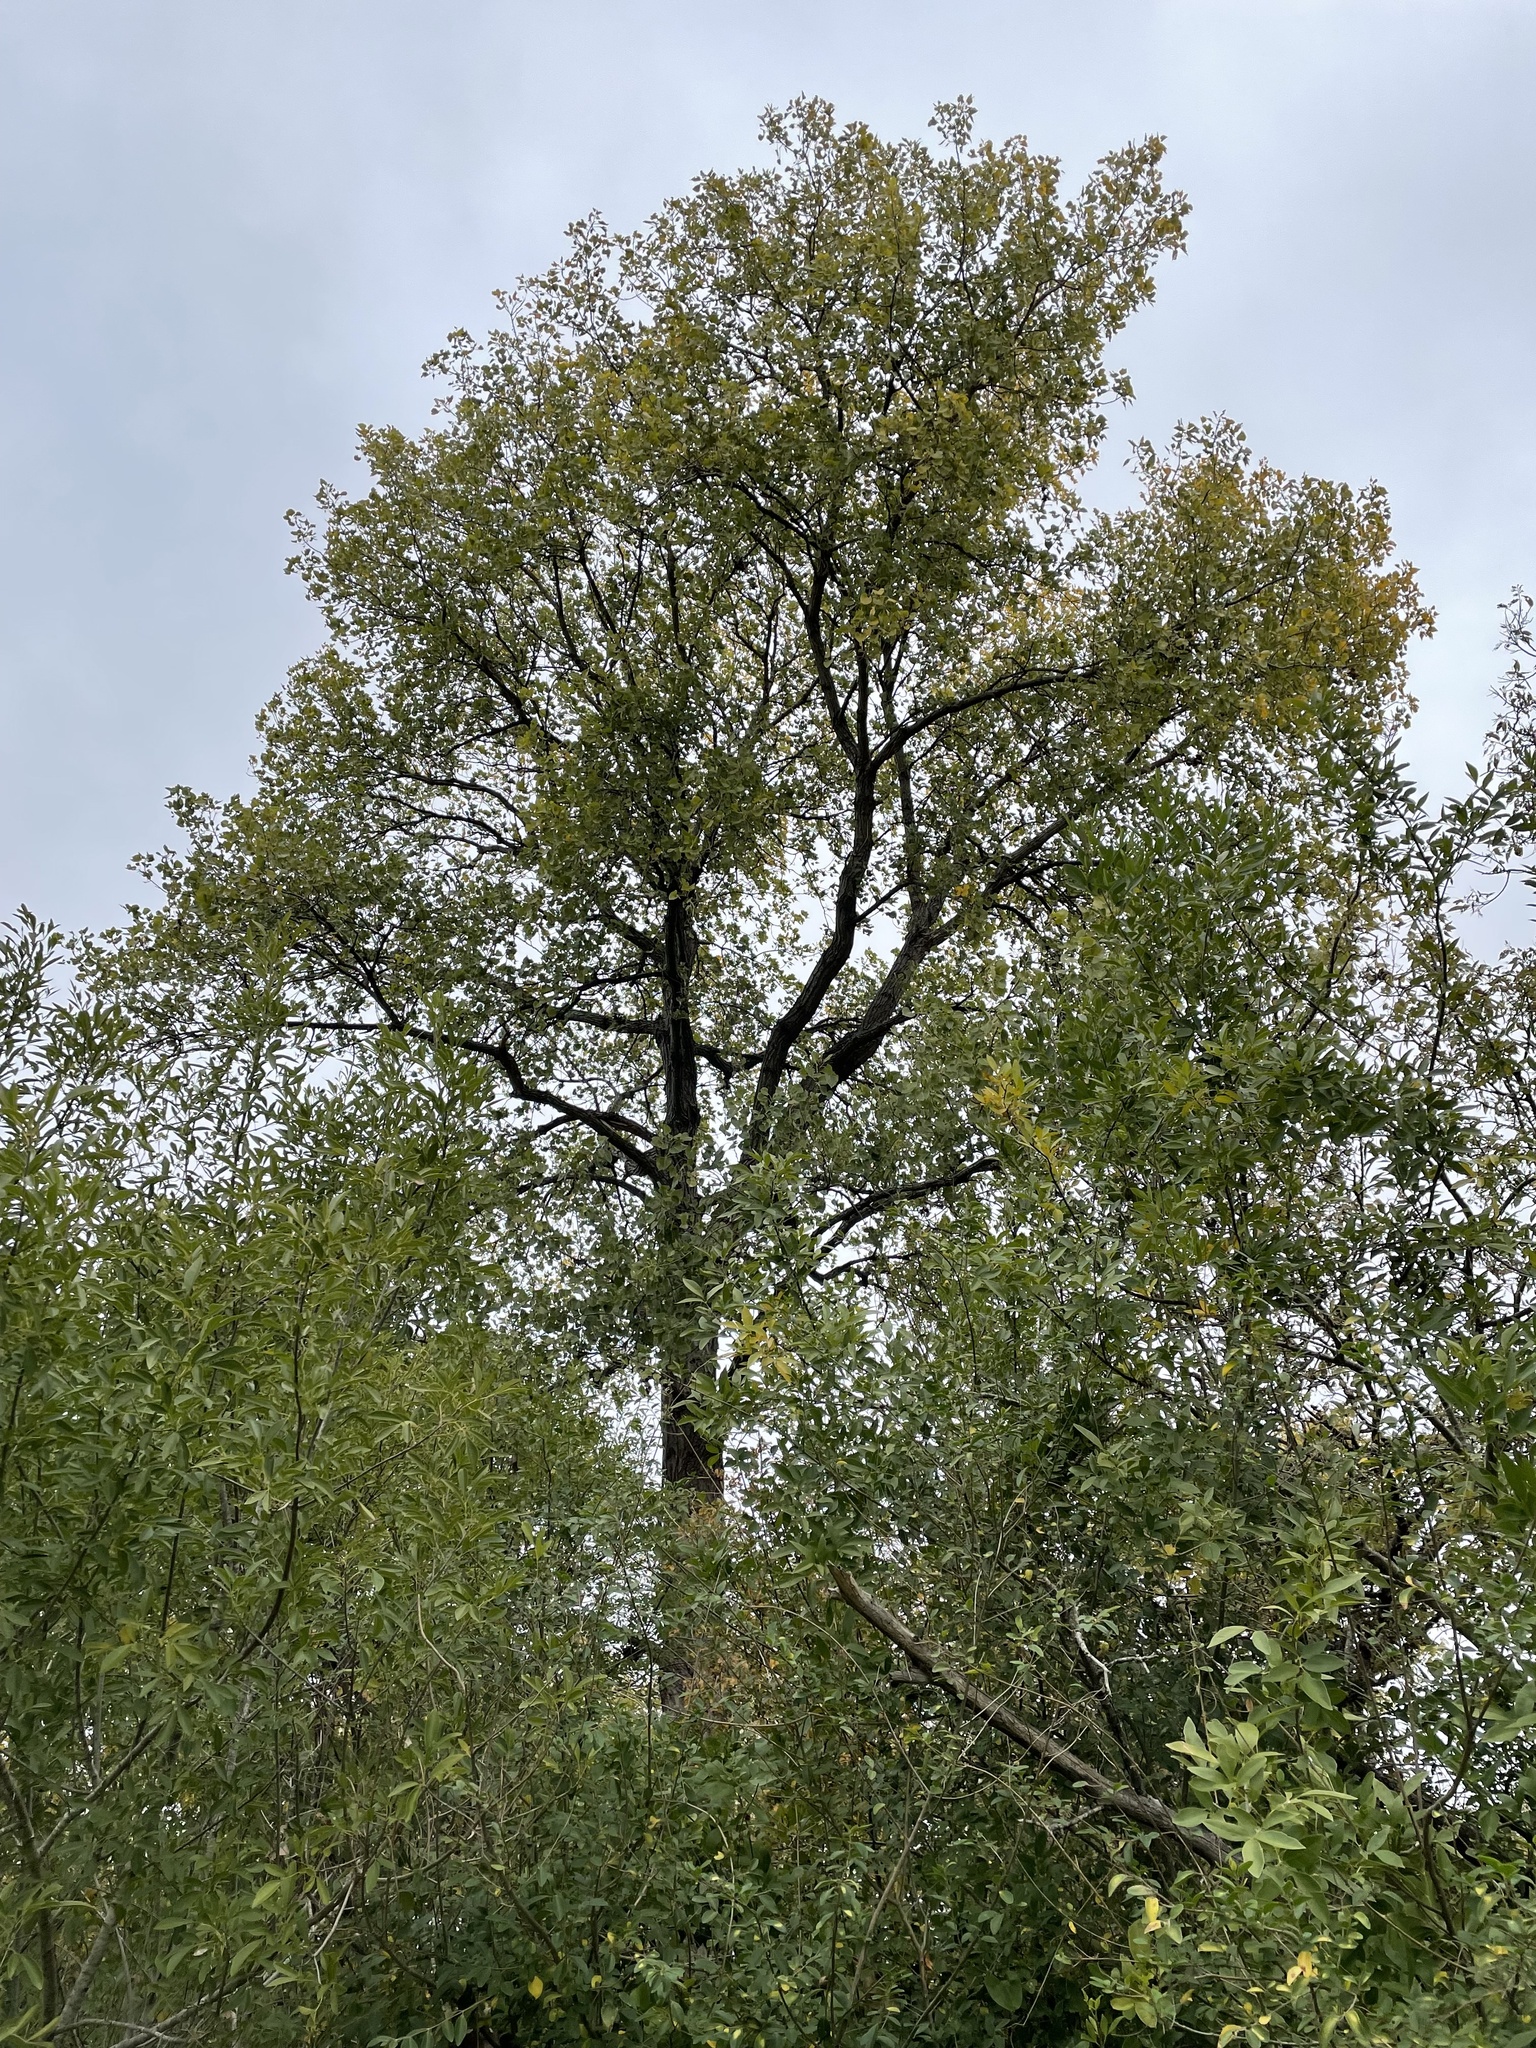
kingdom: Plantae
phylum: Tracheophyta
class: Magnoliopsida
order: Malpighiales
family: Salicaceae
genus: Populus
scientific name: Populus deltoides
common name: Eastern cottonwood
